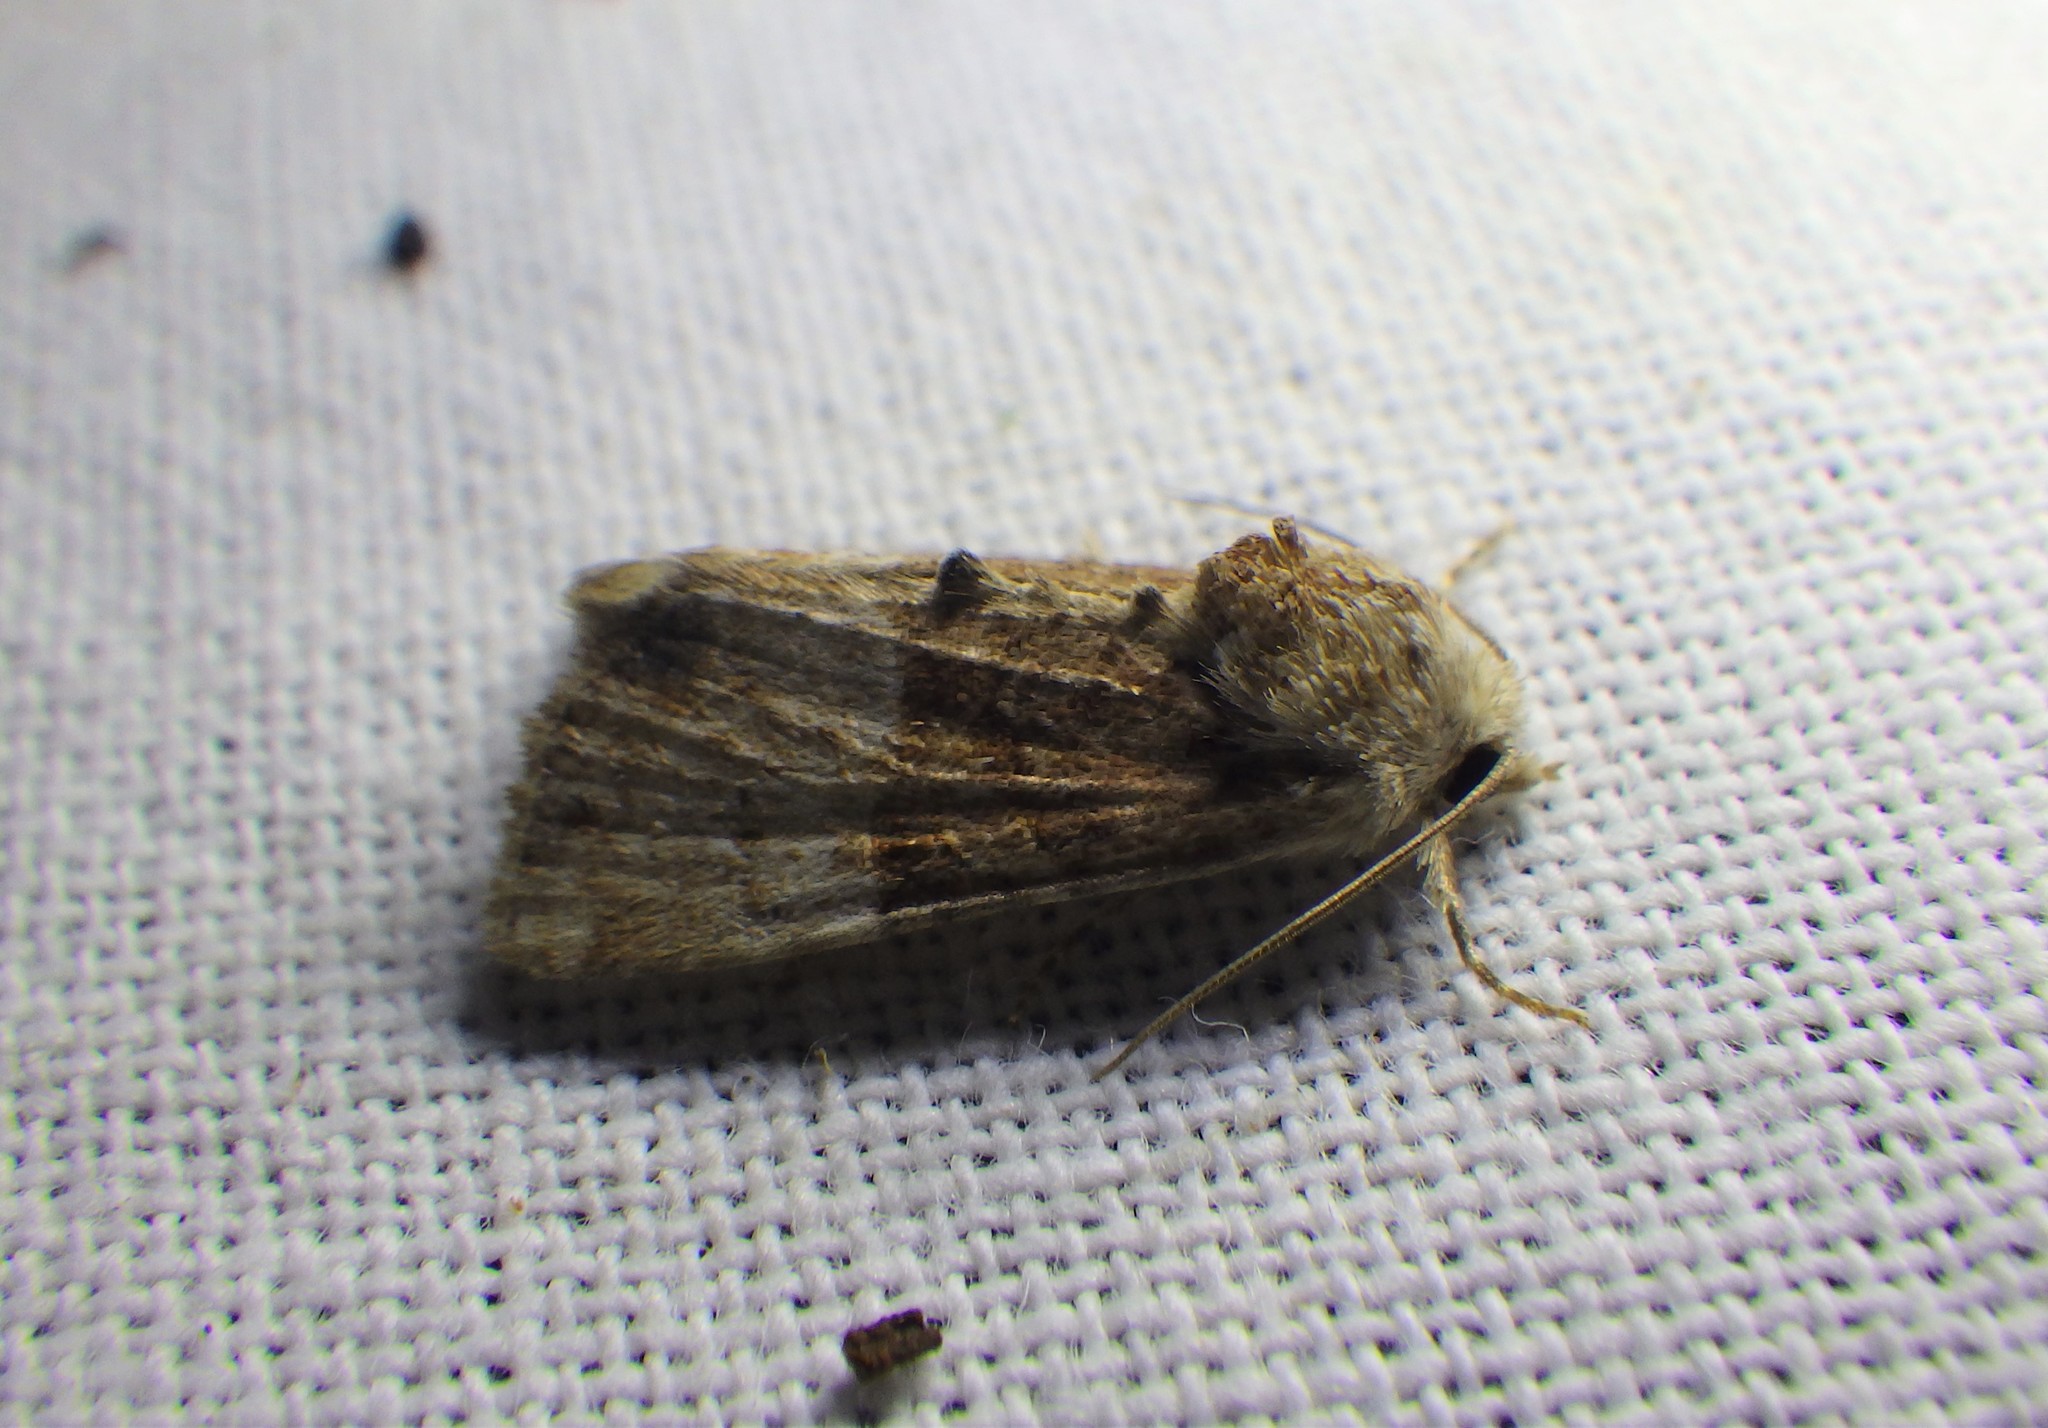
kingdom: Animalia
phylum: Arthropoda
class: Insecta
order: Lepidoptera
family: Noctuidae
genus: Mesoligia
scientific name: Mesoligia furuncula
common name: Cloaked minor
